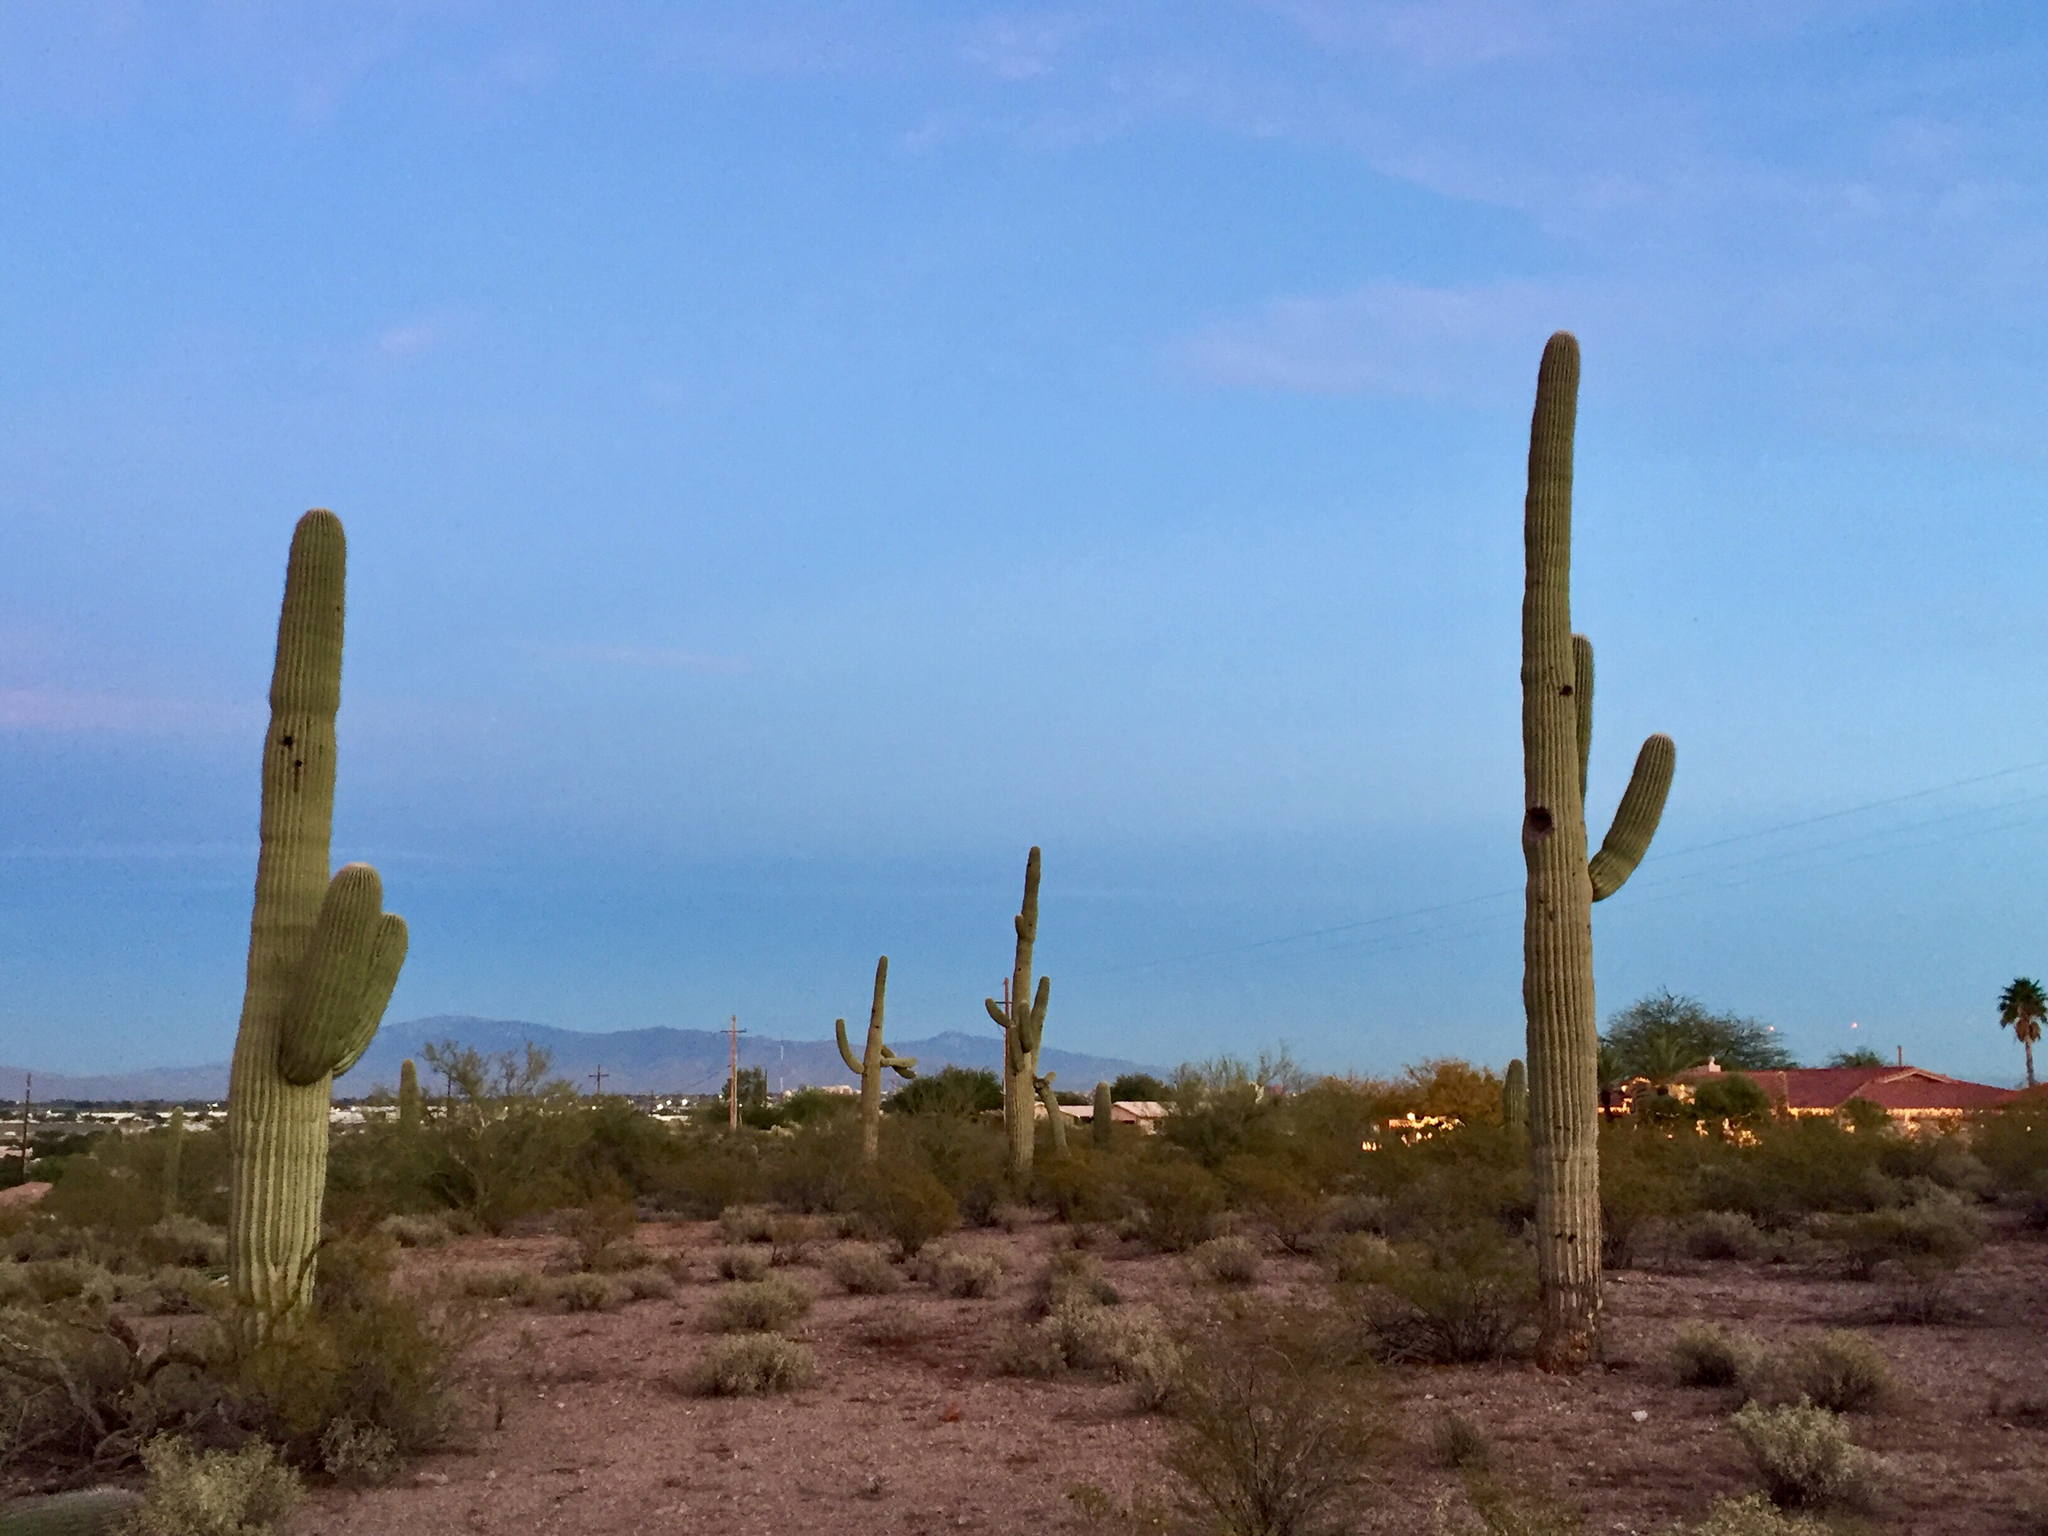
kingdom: Plantae
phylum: Tracheophyta
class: Magnoliopsida
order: Caryophyllales
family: Cactaceae
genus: Carnegiea
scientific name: Carnegiea gigantea
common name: Saguaro
